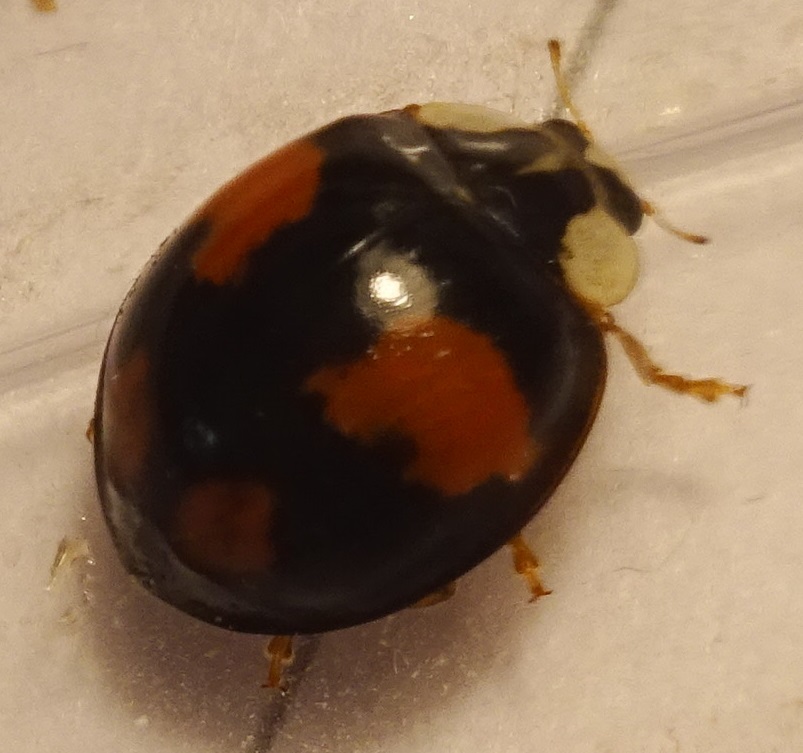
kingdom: Animalia
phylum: Arthropoda
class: Insecta
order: Coleoptera
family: Coccinellidae
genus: Harmonia
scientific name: Harmonia axyridis
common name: Harlequin ladybird
